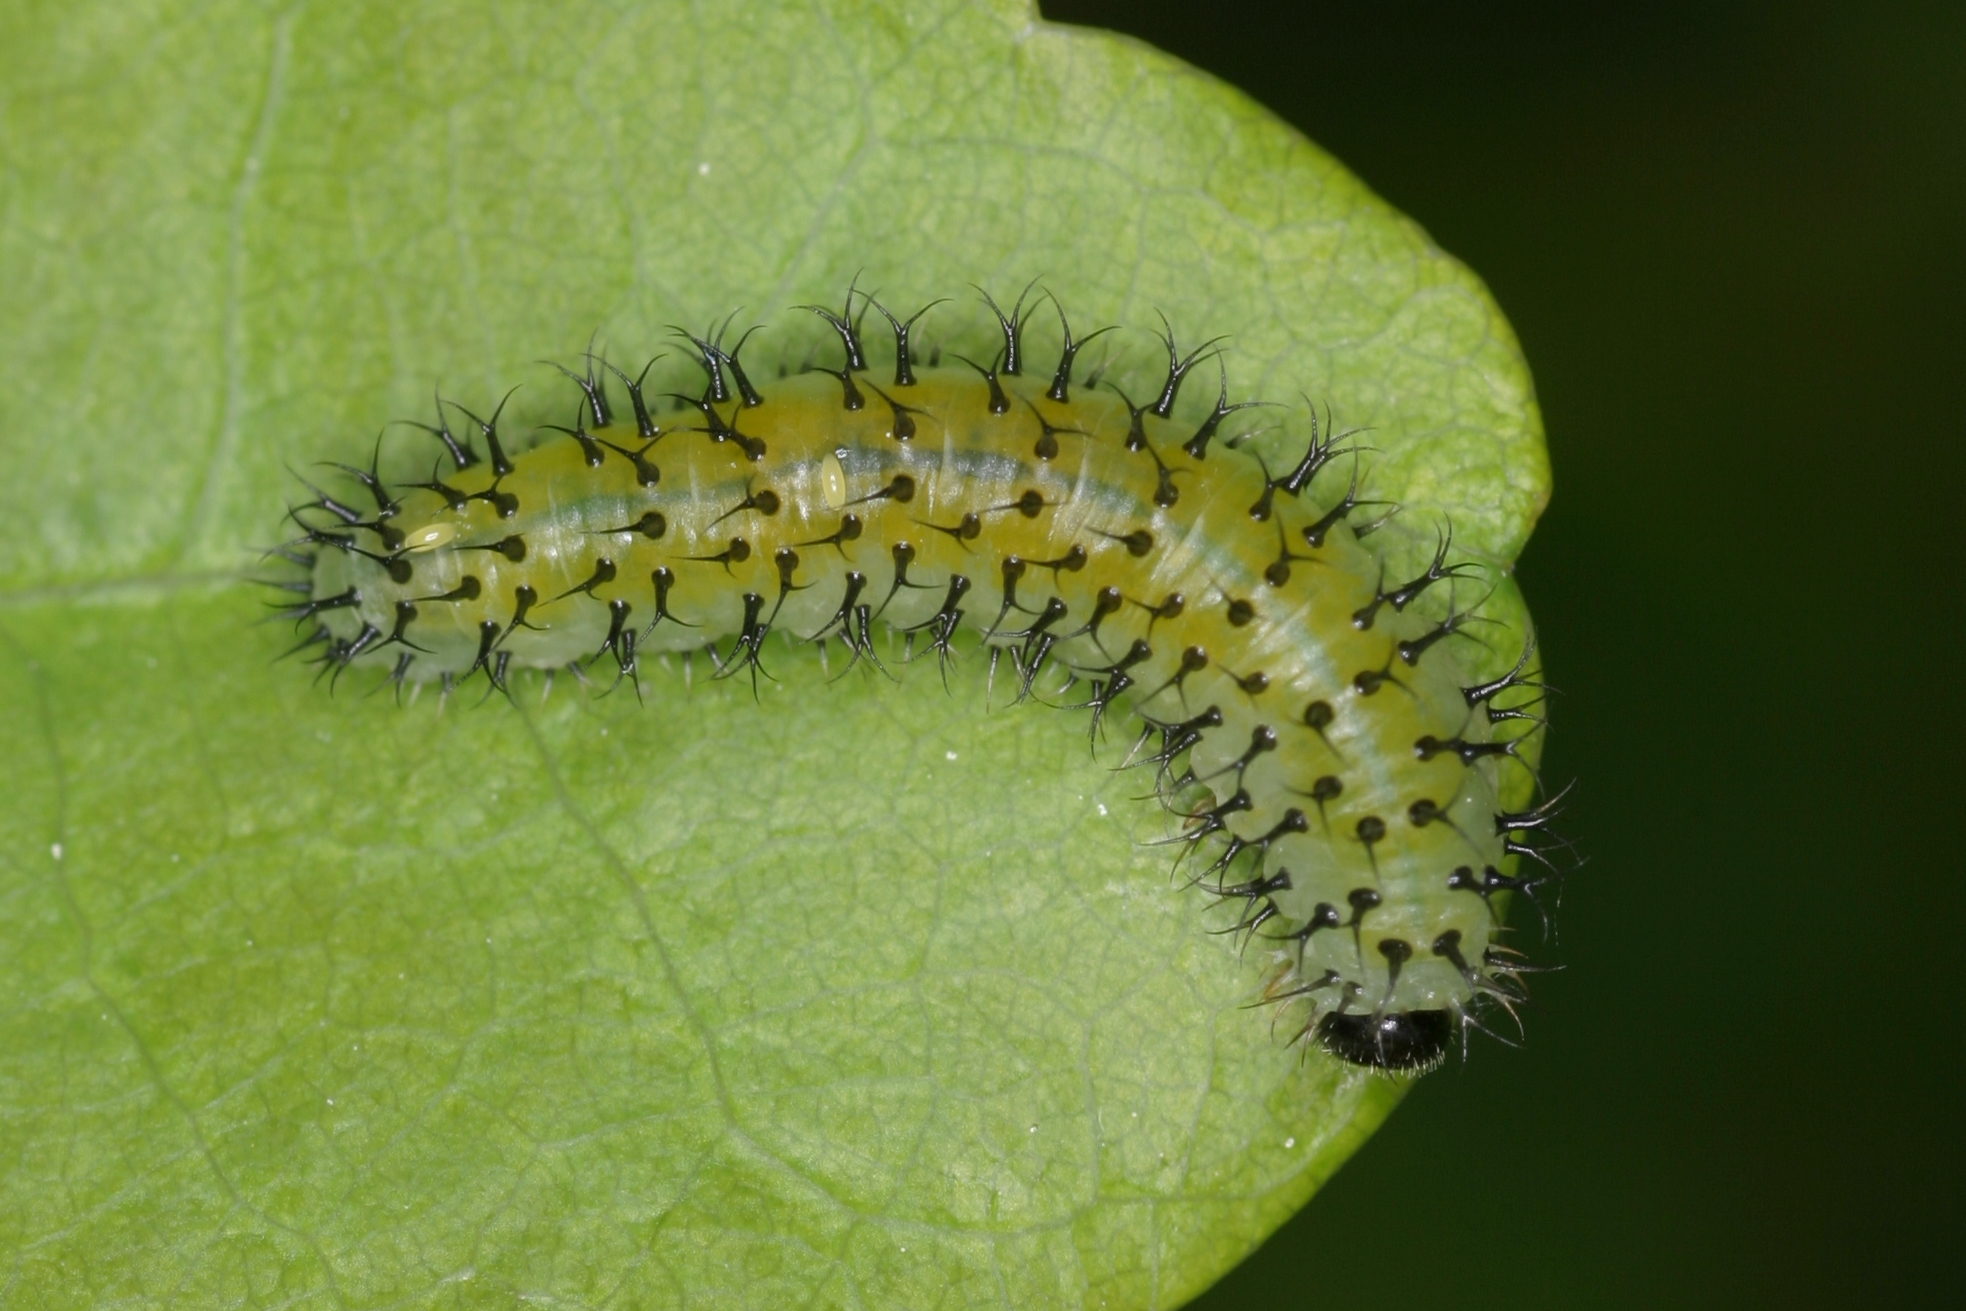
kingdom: Animalia
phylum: Arthropoda
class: Insecta
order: Hymenoptera
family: Tenthredinidae
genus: Periclista
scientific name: Periclista lineolata
